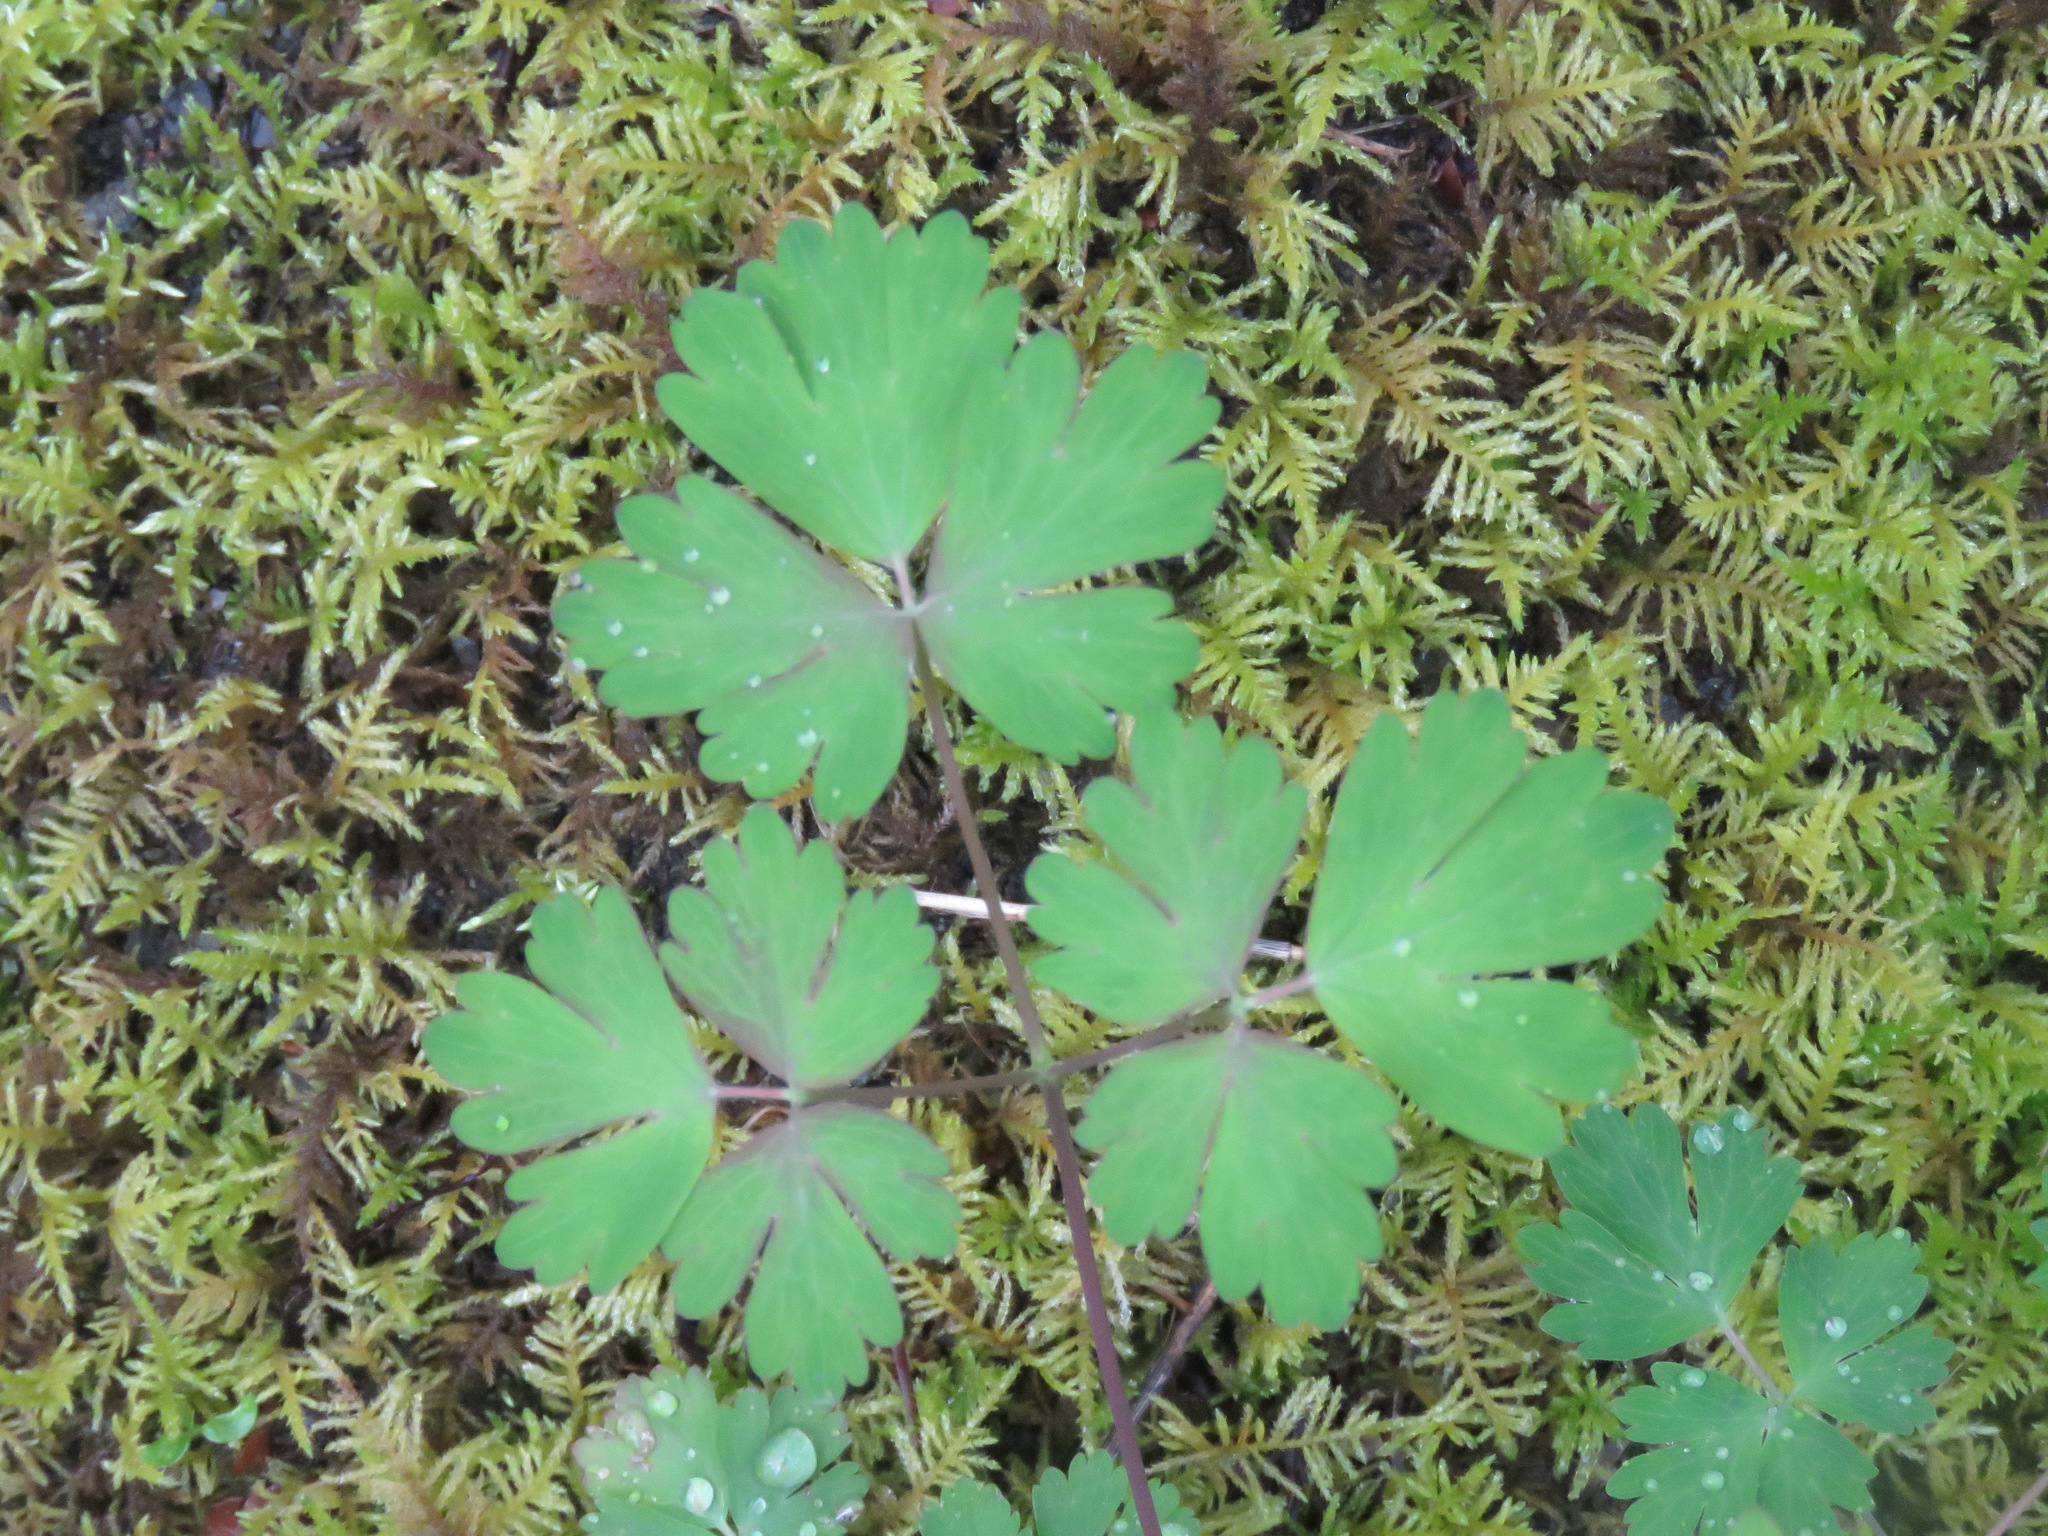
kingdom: Plantae
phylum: Tracheophyta
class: Magnoliopsida
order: Ranunculales
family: Ranunculaceae
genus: Aquilegia
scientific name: Aquilegia formosa
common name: Sitka columbine
